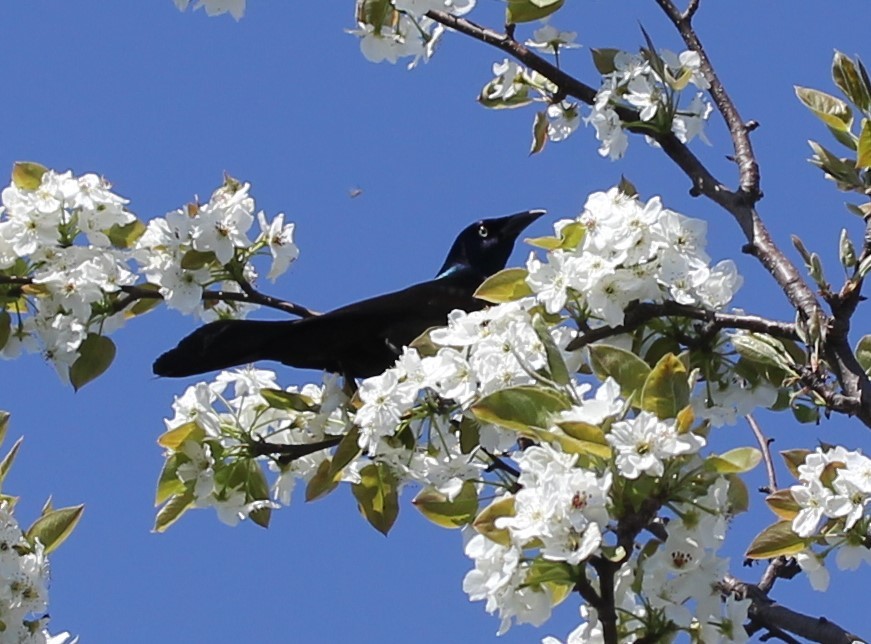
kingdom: Animalia
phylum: Chordata
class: Aves
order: Passeriformes
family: Icteridae
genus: Quiscalus
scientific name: Quiscalus quiscula
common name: Common grackle
